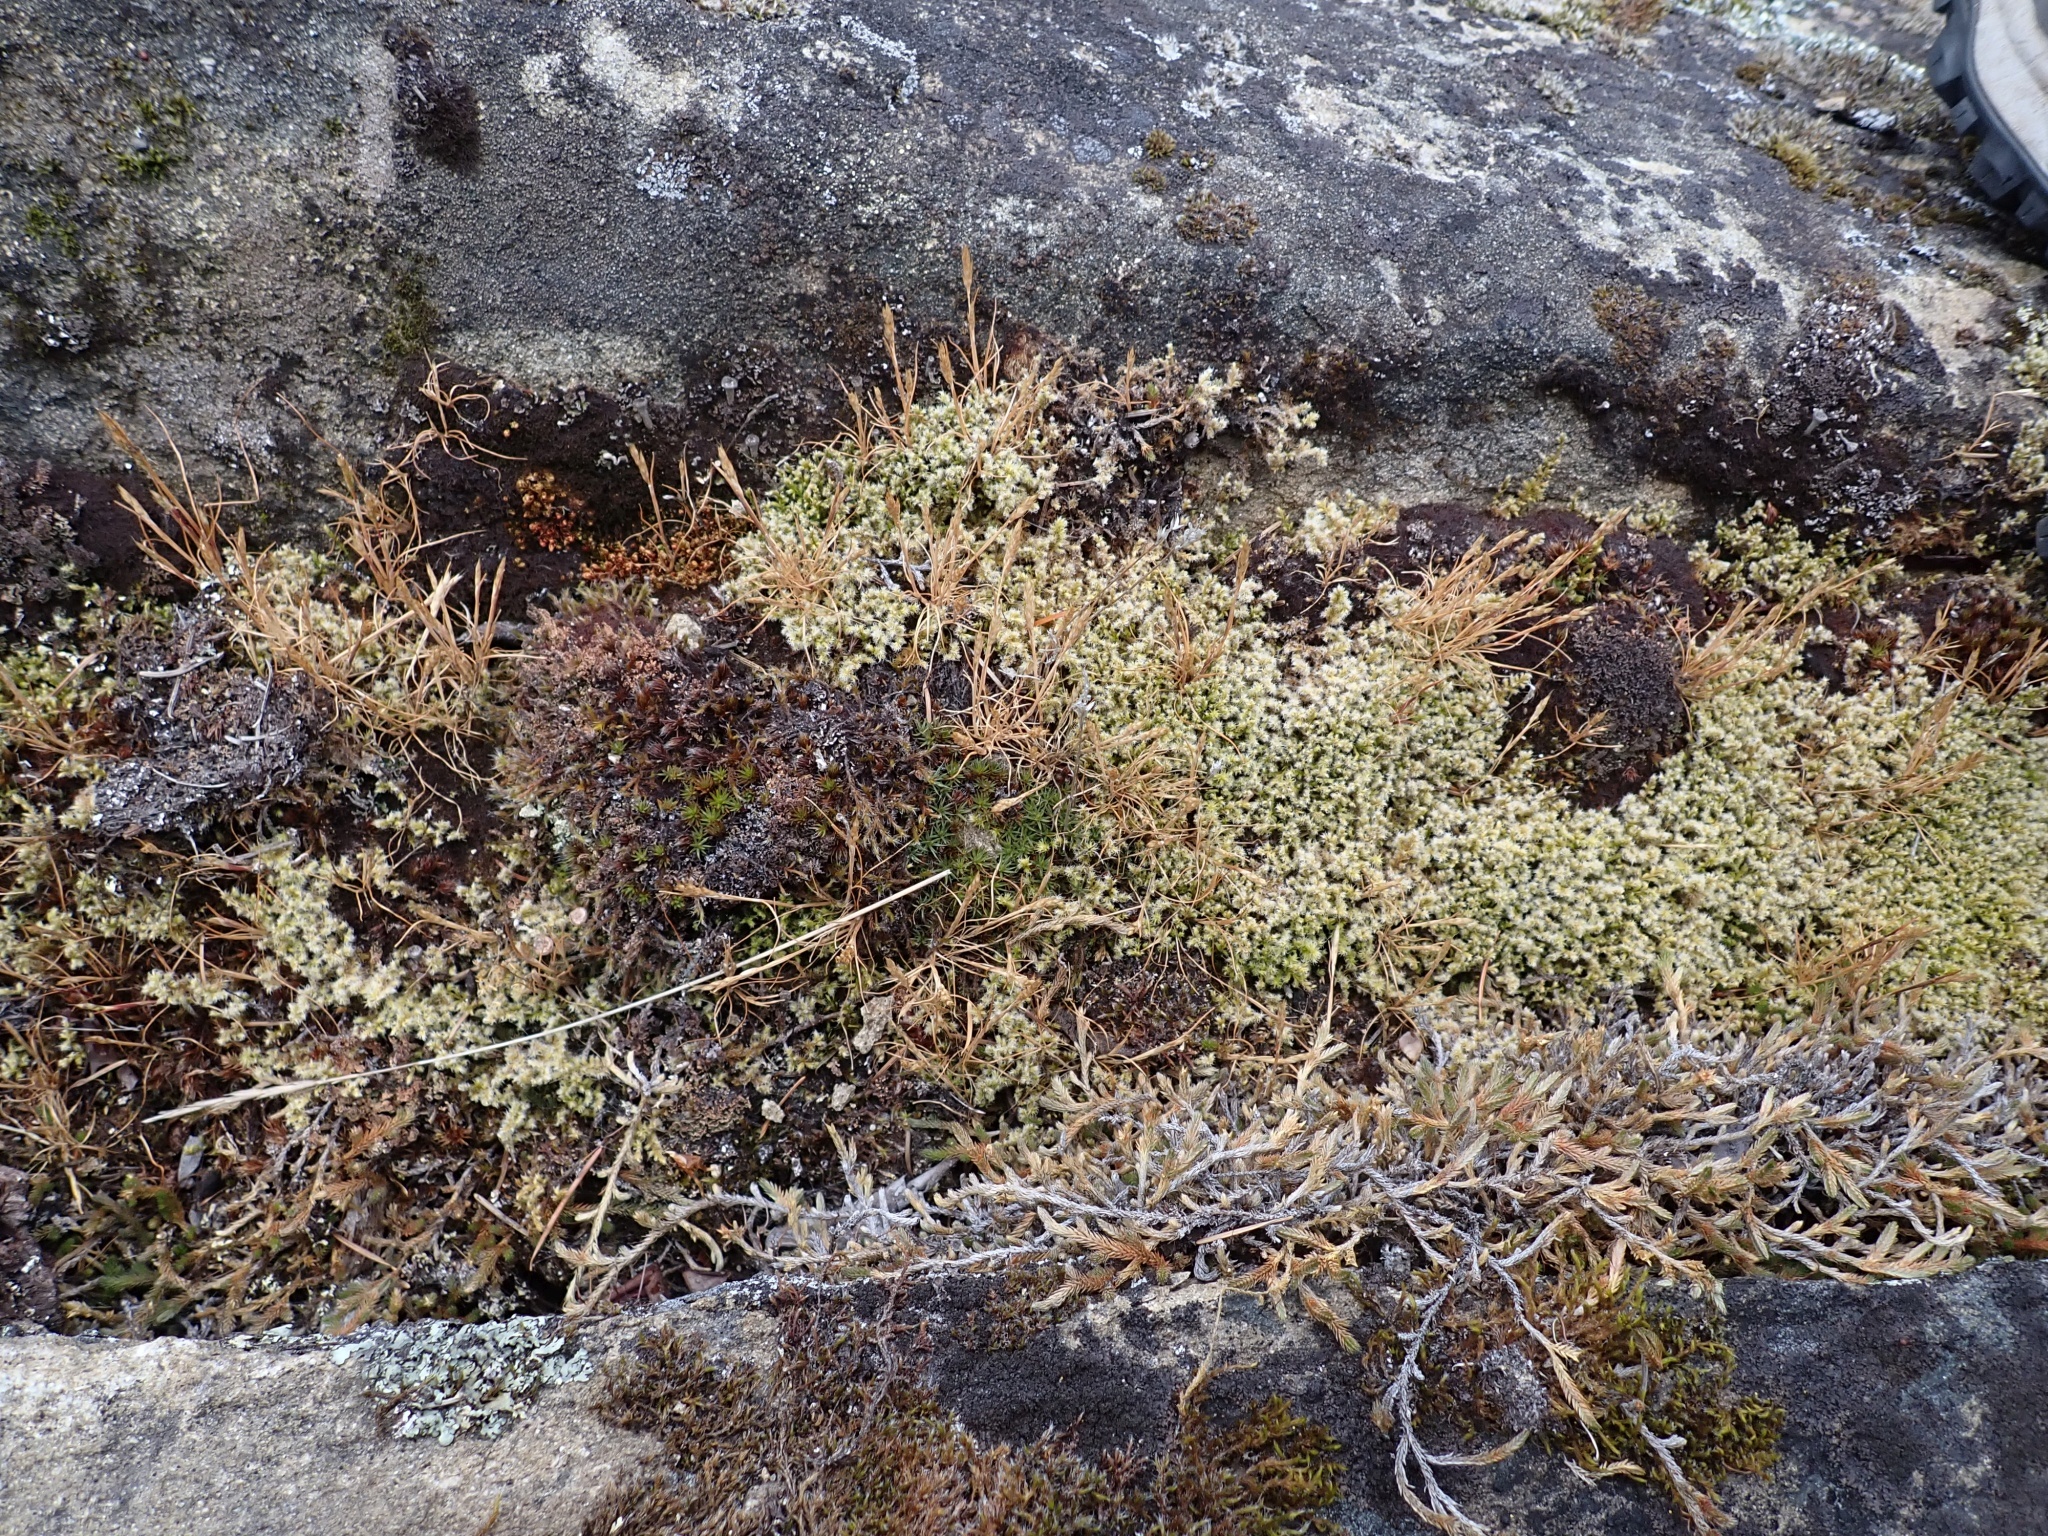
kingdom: Plantae
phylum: Bryophyta
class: Polytrichopsida
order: Polytrichales
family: Polytrichaceae
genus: Polytrichum
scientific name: Polytrichum piliferum
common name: Bristly haircap
